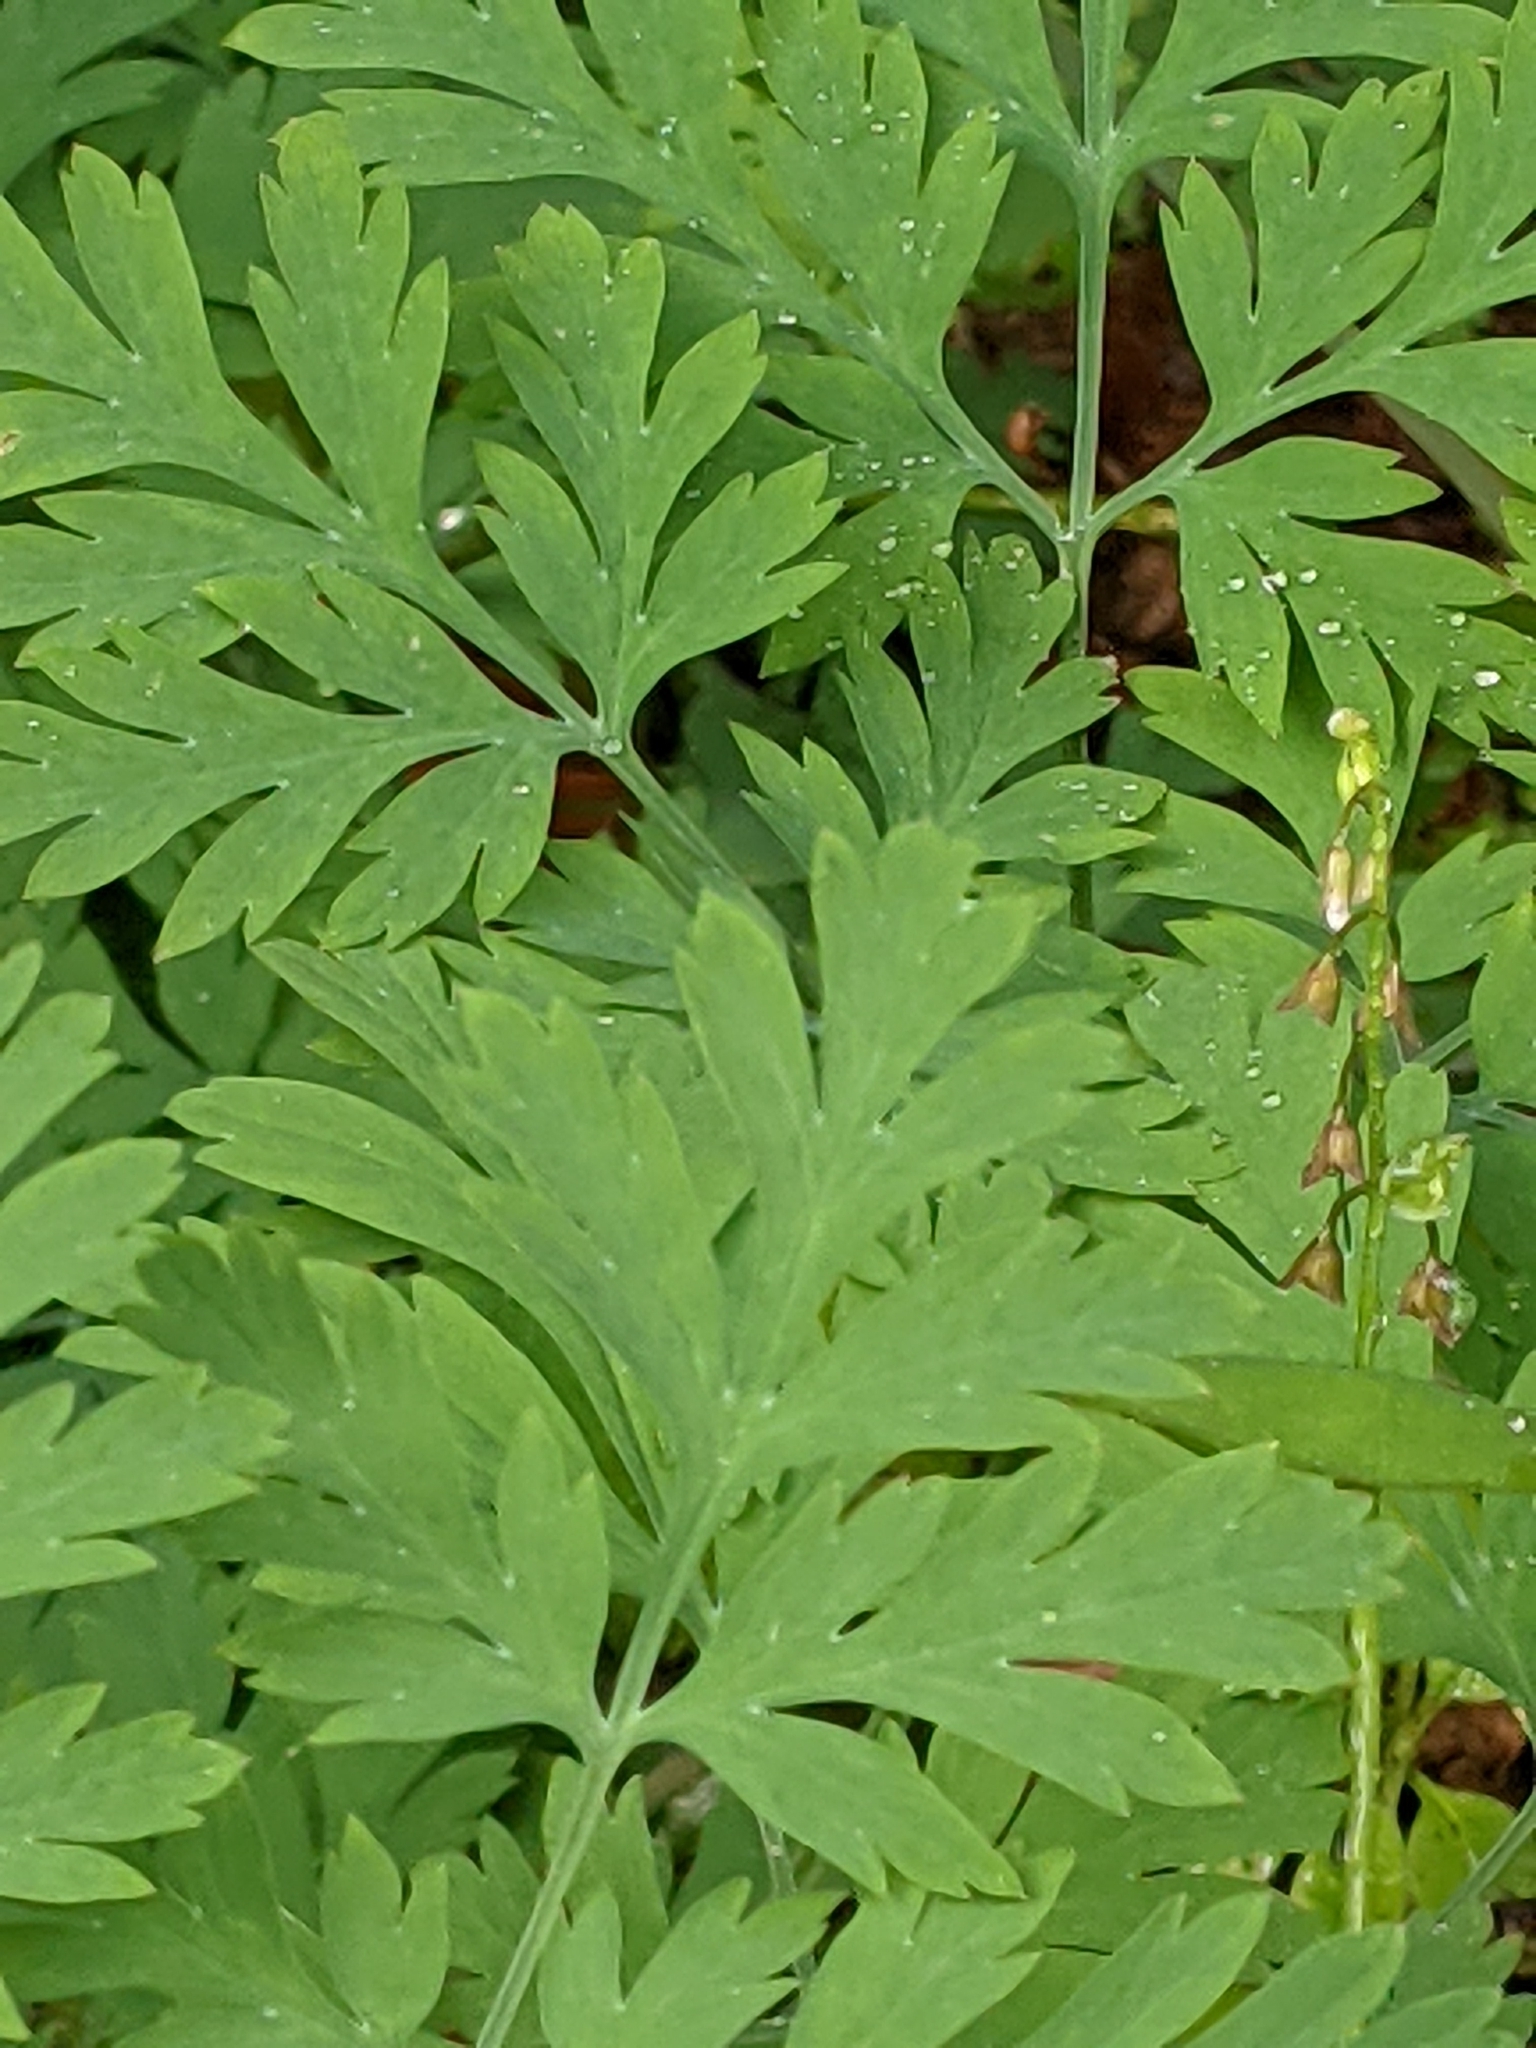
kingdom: Plantae
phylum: Tracheophyta
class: Magnoliopsida
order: Ranunculales
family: Papaveraceae
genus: Dicentra
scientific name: Dicentra formosa
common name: Bleeding-heart
